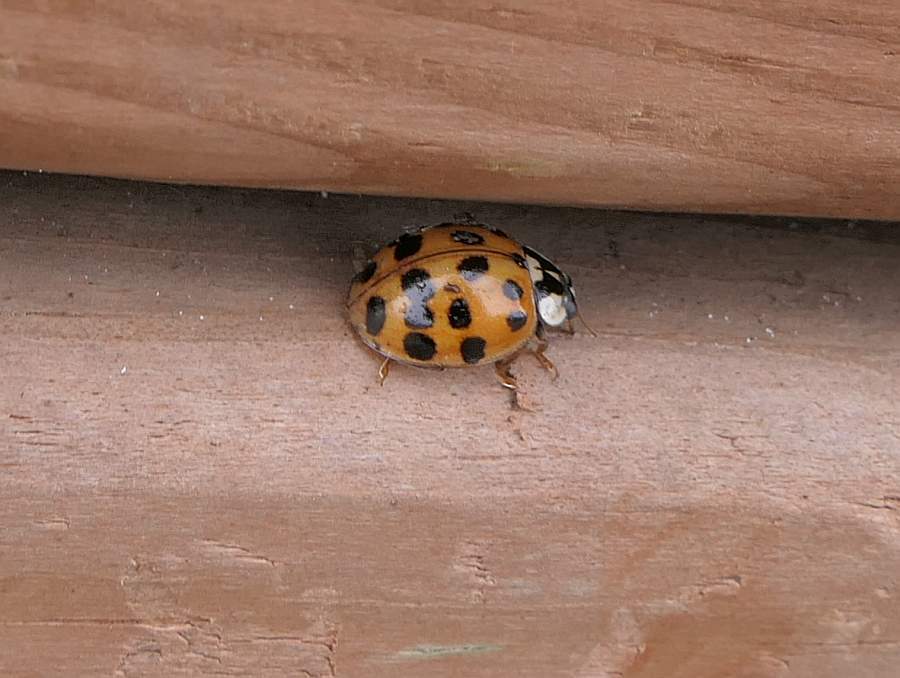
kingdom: Animalia
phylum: Arthropoda
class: Insecta
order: Coleoptera
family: Coccinellidae
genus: Harmonia
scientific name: Harmonia axyridis
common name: Harlequin ladybird
